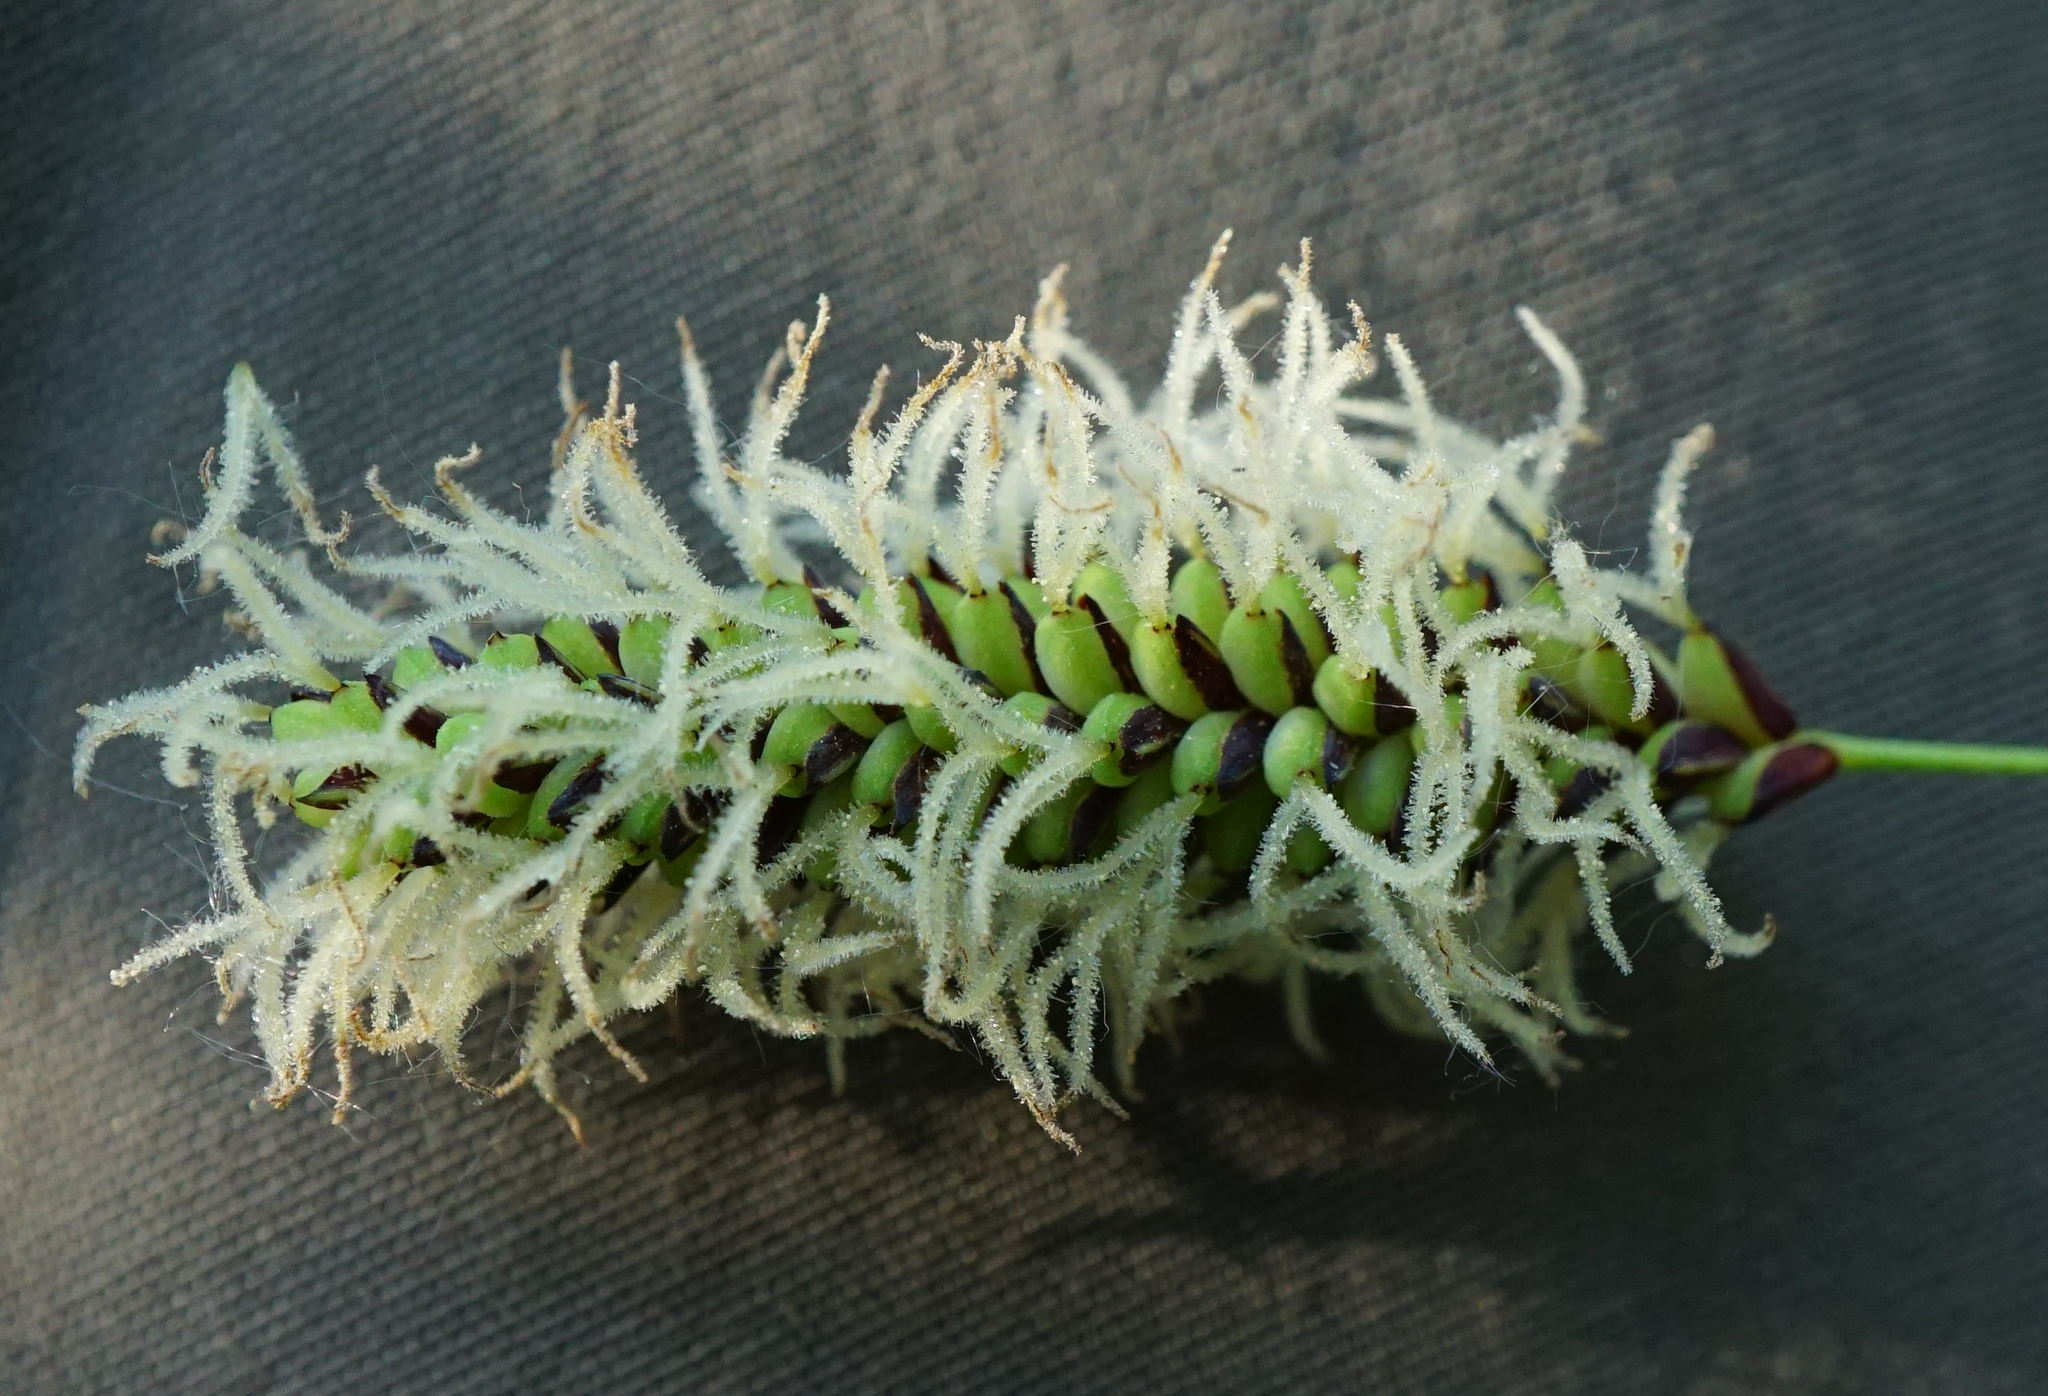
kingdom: Plantae
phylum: Tracheophyta
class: Liliopsida
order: Poales
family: Cyperaceae
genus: Carex
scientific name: Carex flacca
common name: Glaucous sedge
